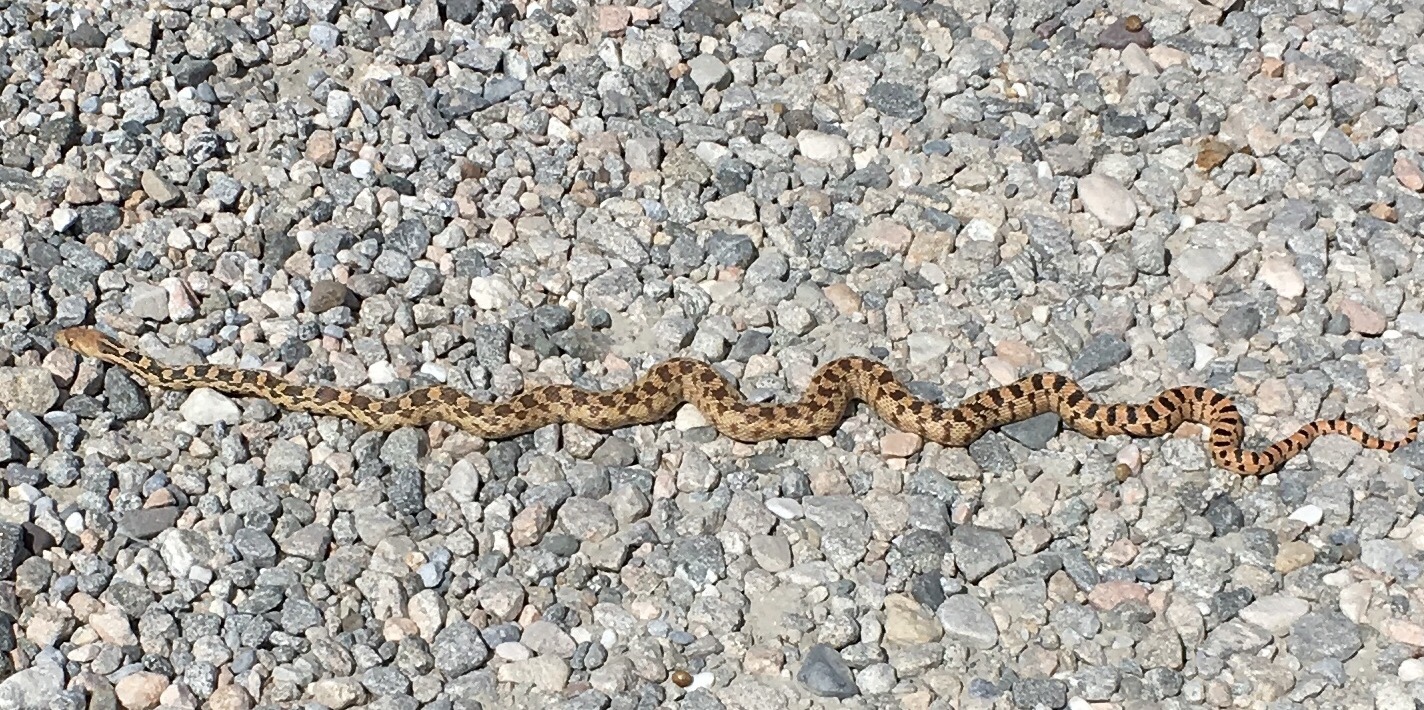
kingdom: Animalia
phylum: Chordata
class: Squamata
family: Colubridae
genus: Pituophis
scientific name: Pituophis catenifer
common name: Gopher snake
